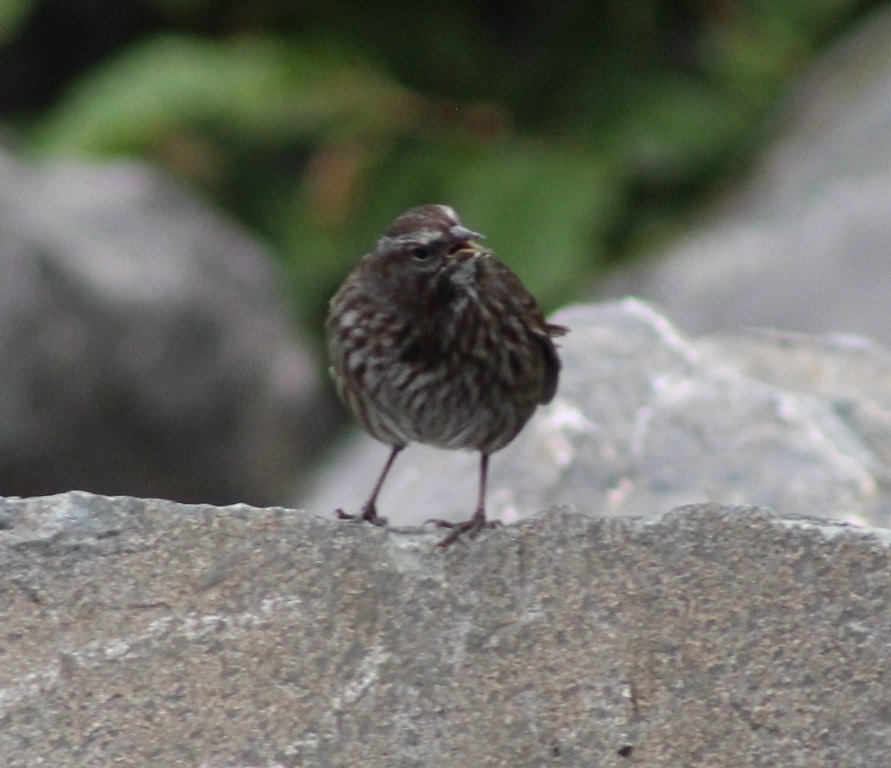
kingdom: Animalia
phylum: Chordata
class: Aves
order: Passeriformes
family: Passerellidae
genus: Melospiza
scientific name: Melospiza melodia
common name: Song sparrow
